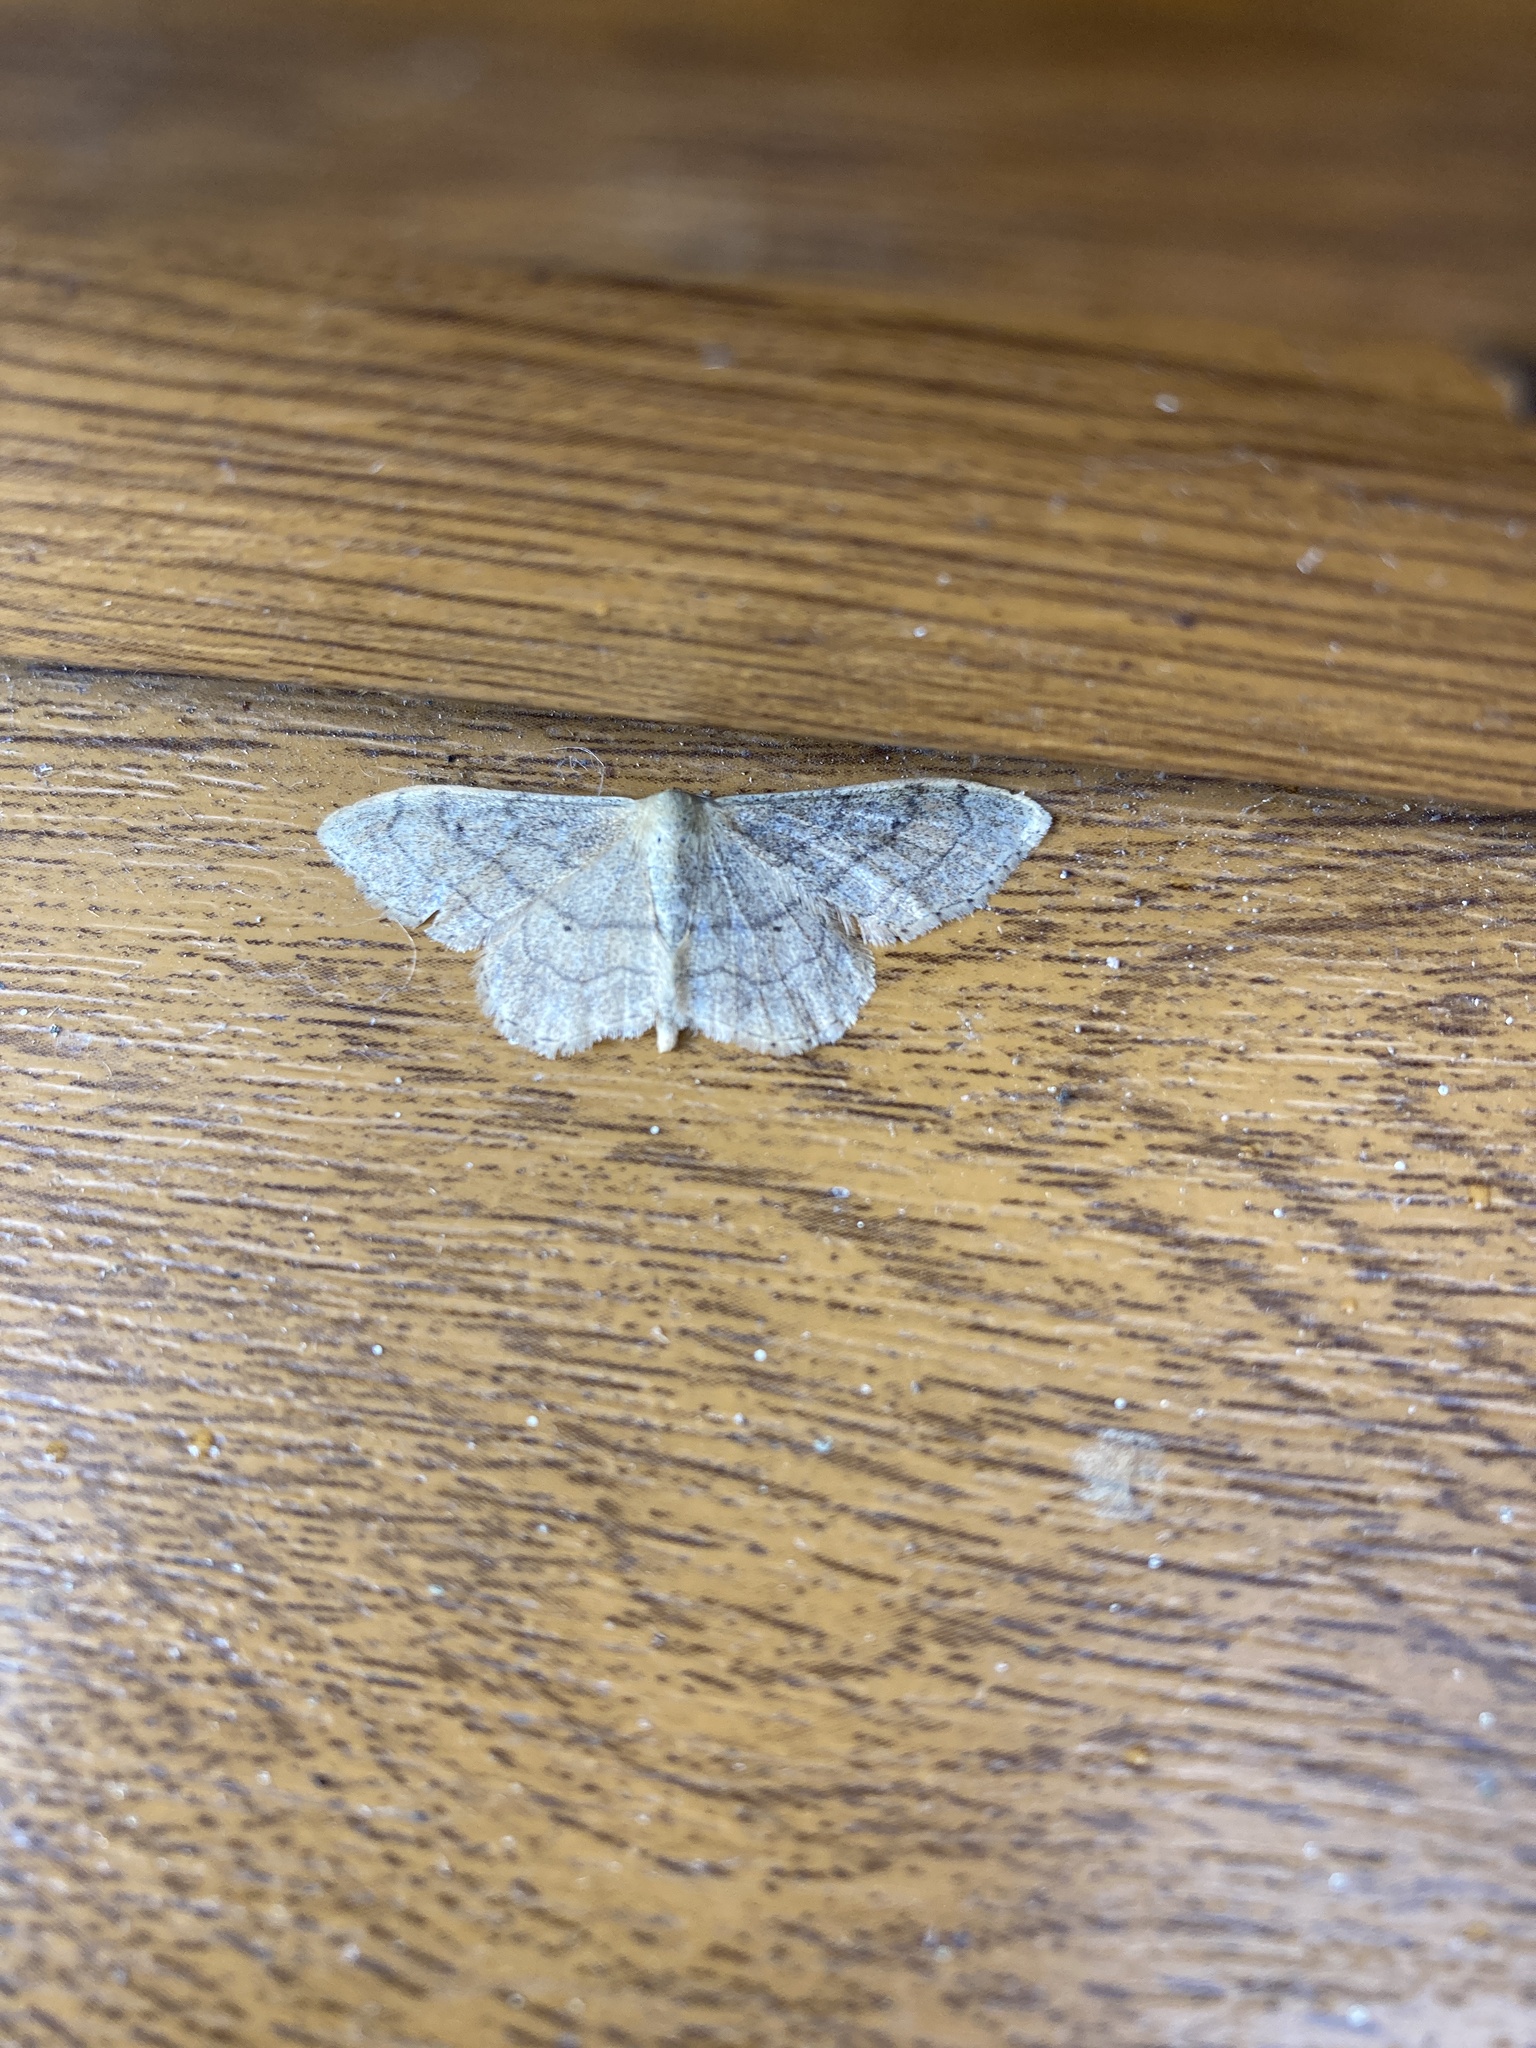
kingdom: Animalia
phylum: Arthropoda
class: Insecta
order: Lepidoptera
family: Geometridae
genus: Idaea
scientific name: Idaea aversata
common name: Riband wave
